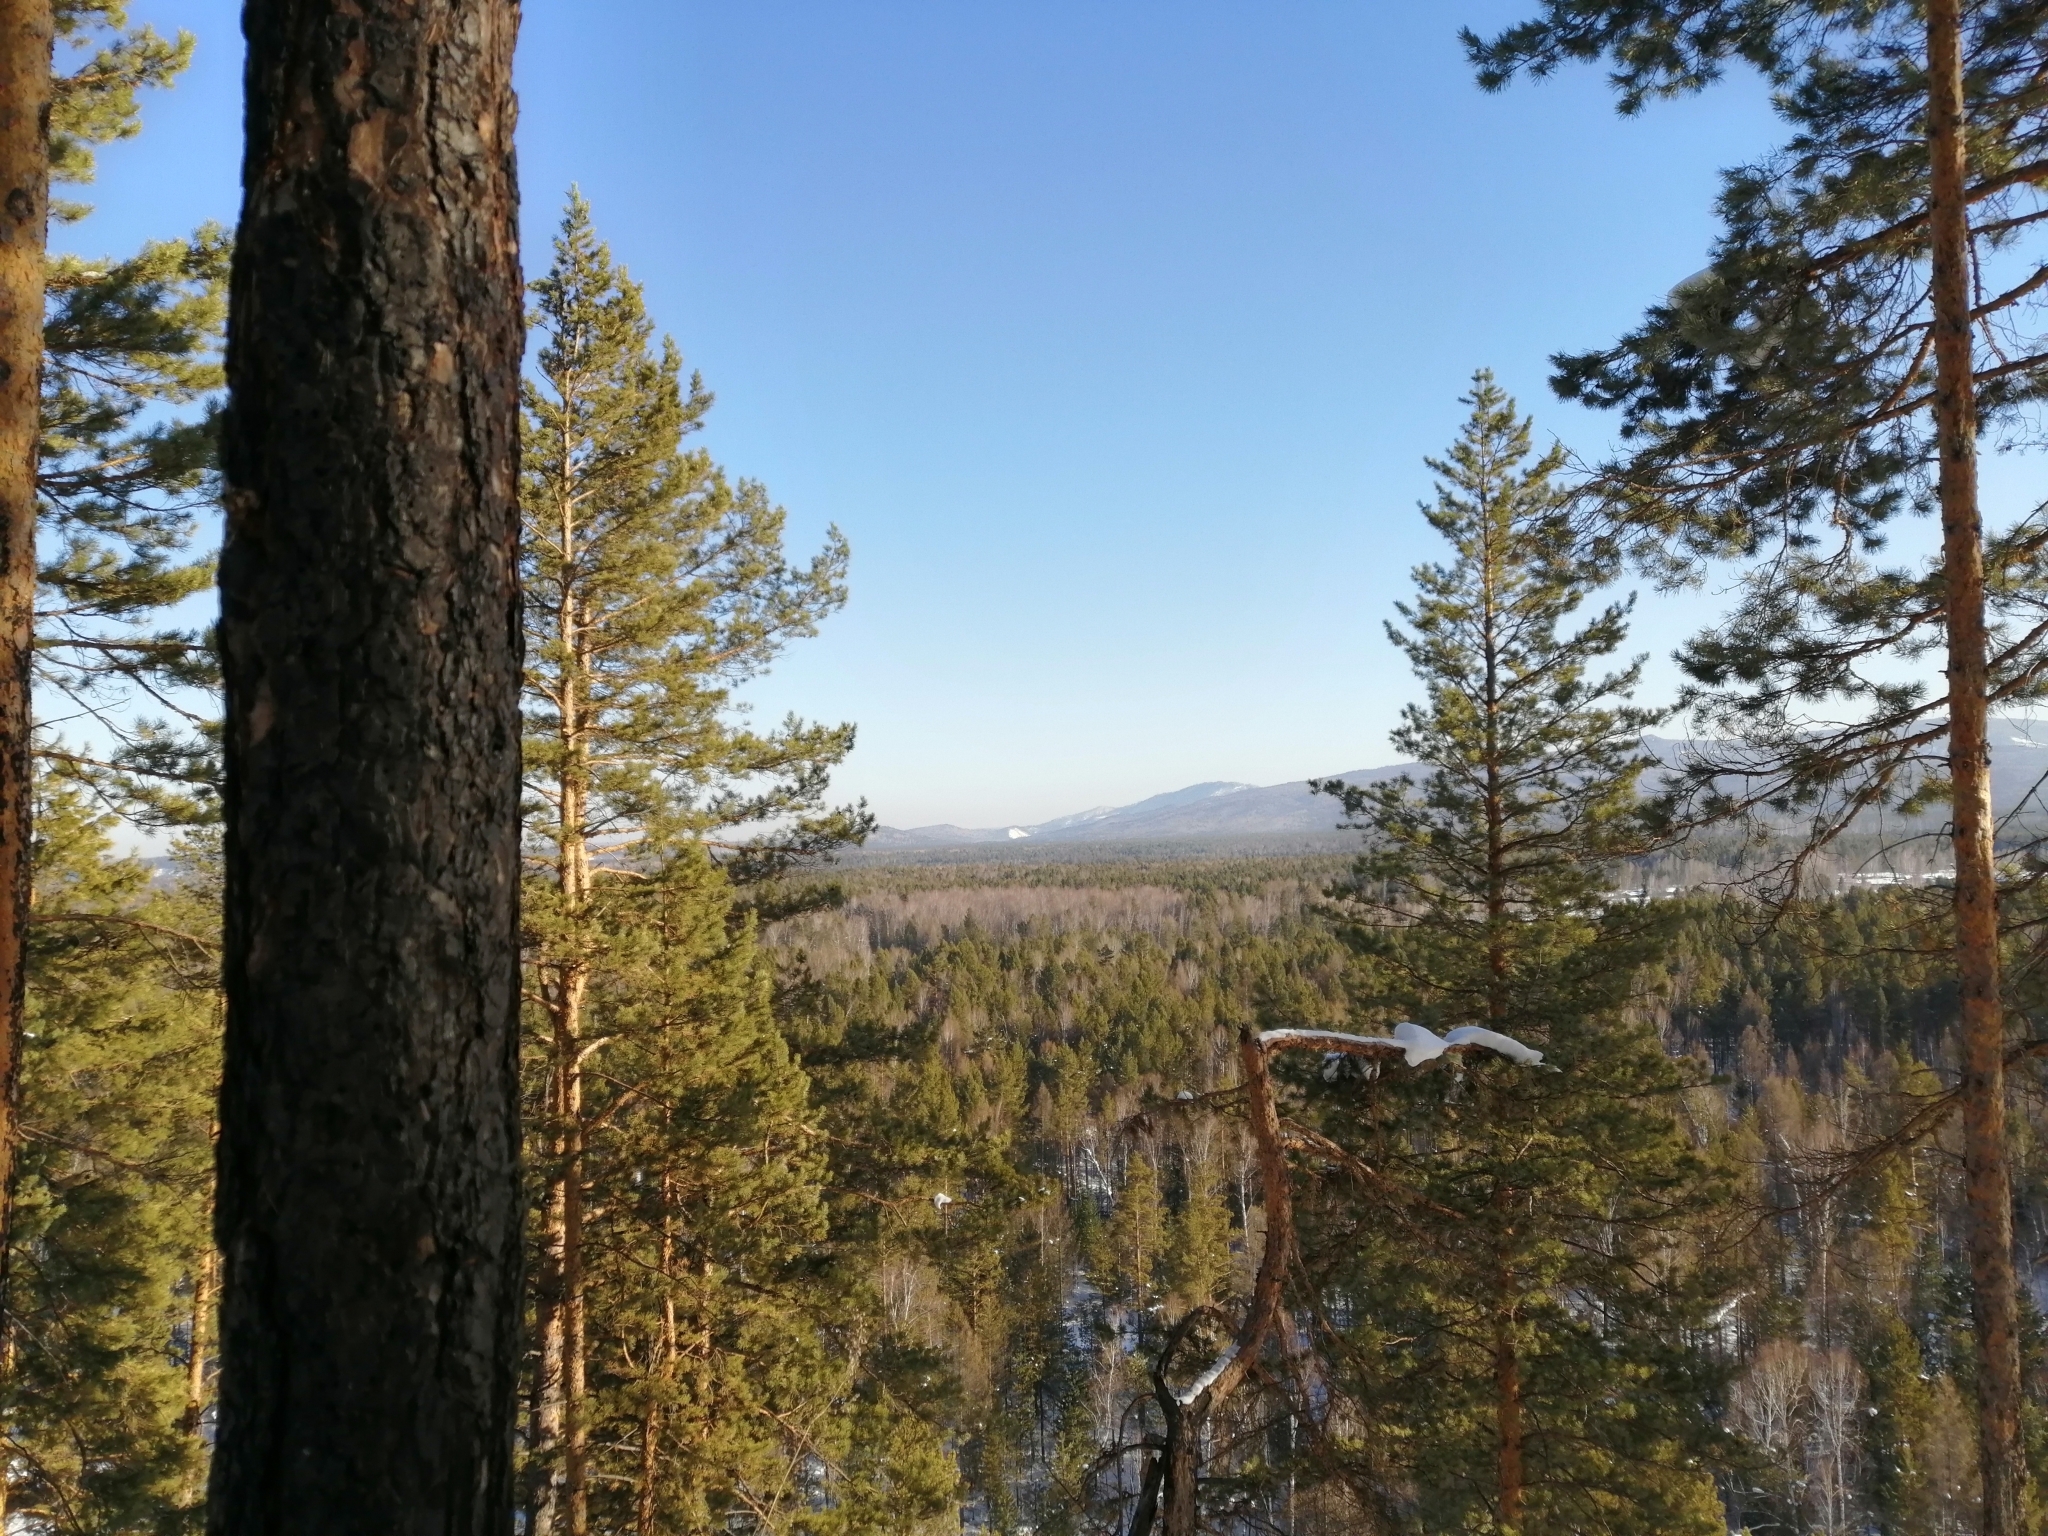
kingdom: Plantae
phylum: Tracheophyta
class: Pinopsida
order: Pinales
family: Pinaceae
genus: Pinus
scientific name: Pinus sylvestris
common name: Scots pine
